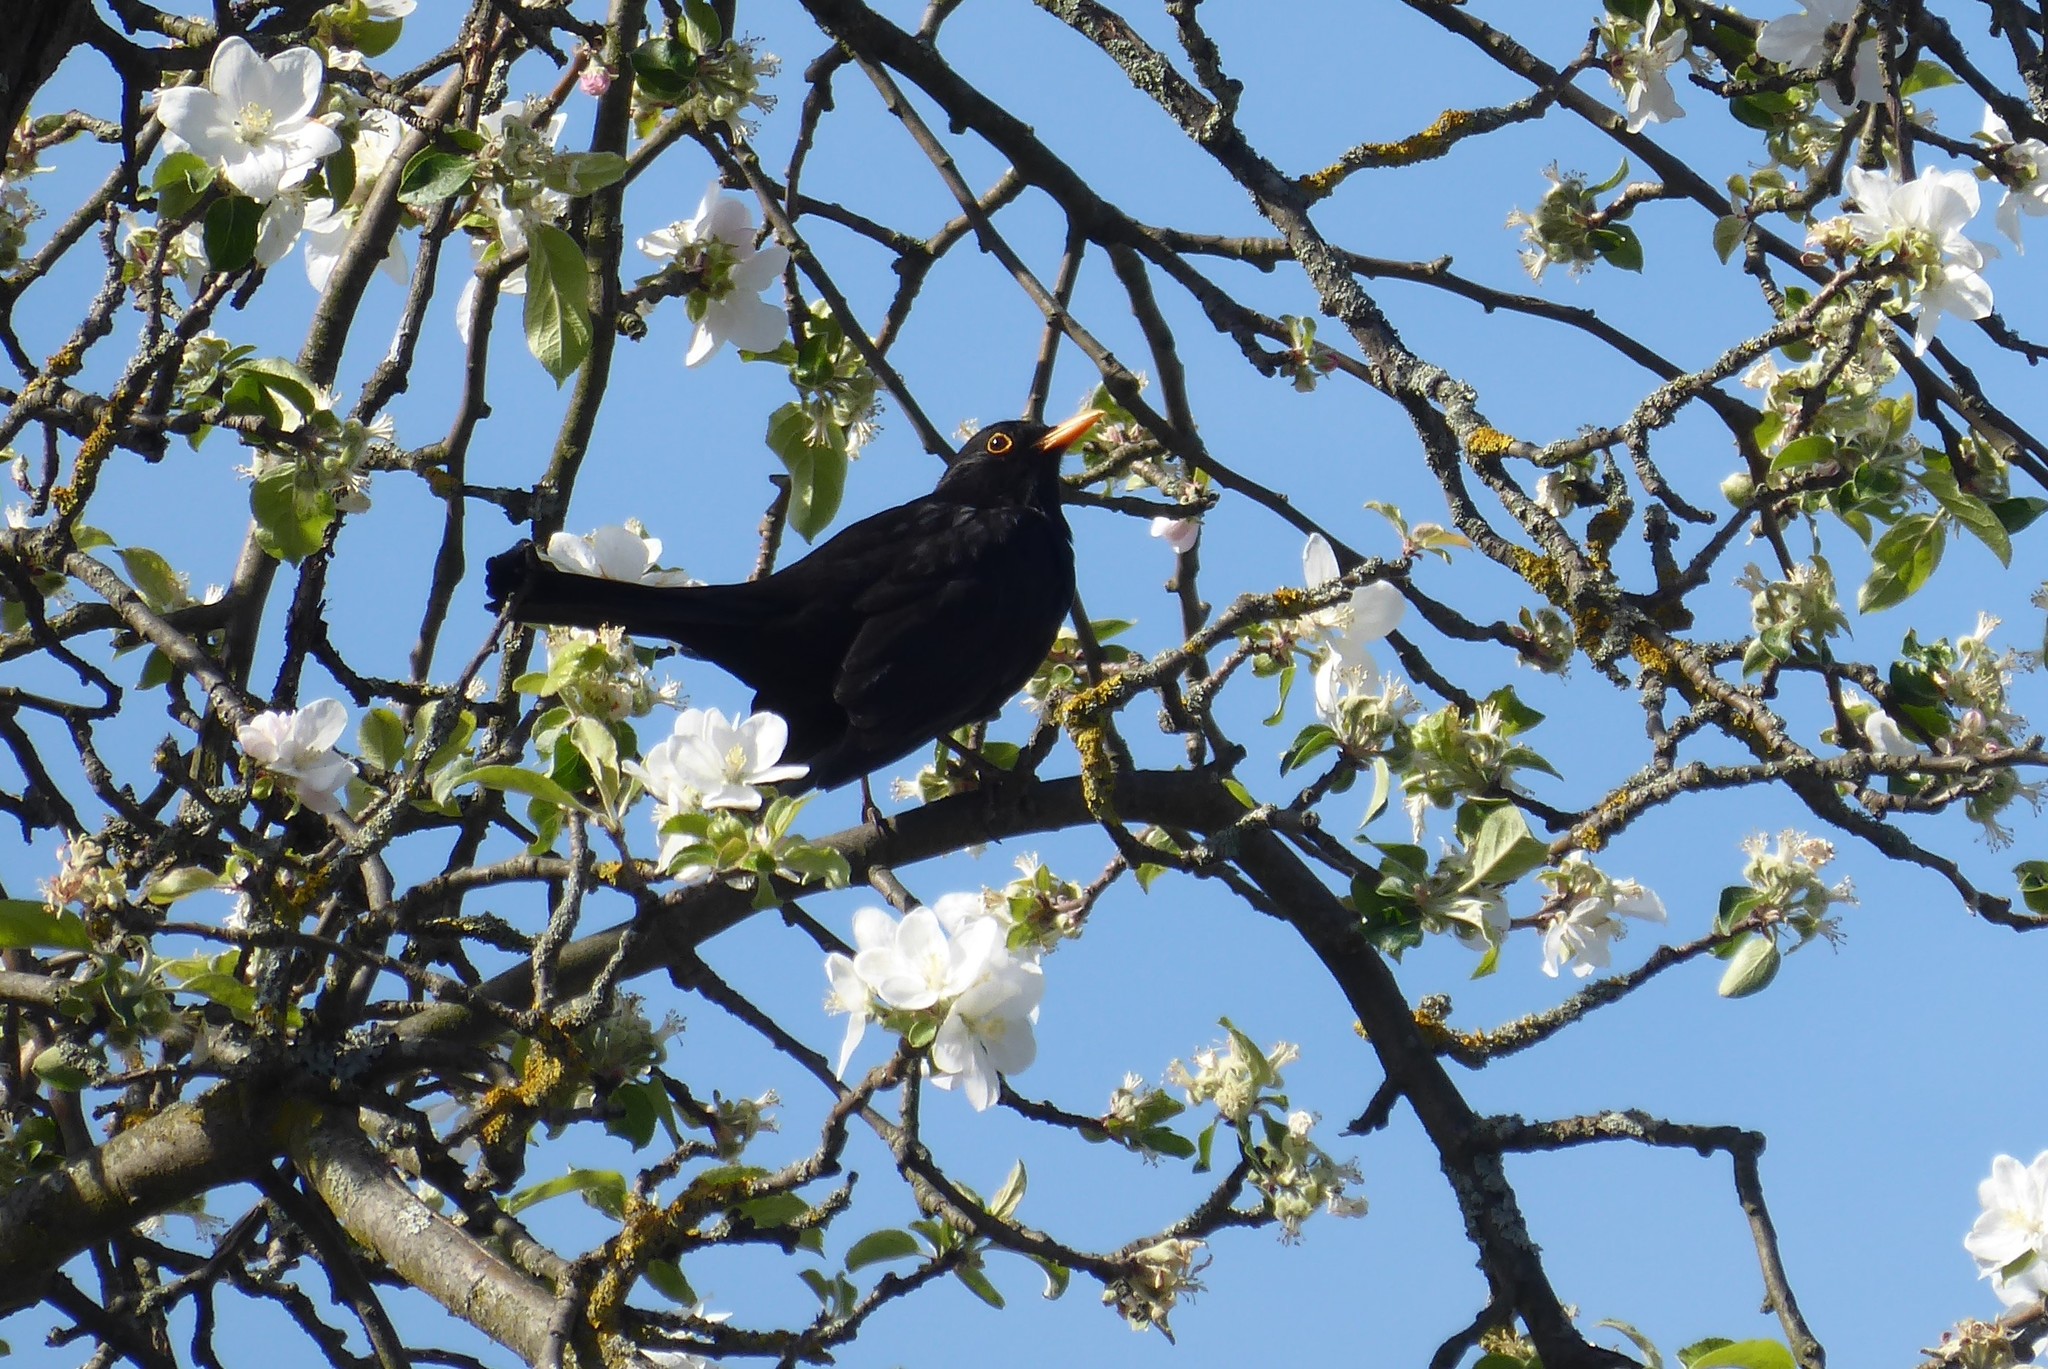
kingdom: Animalia
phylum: Chordata
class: Aves
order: Passeriformes
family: Turdidae
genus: Turdus
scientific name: Turdus merula
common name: Common blackbird
